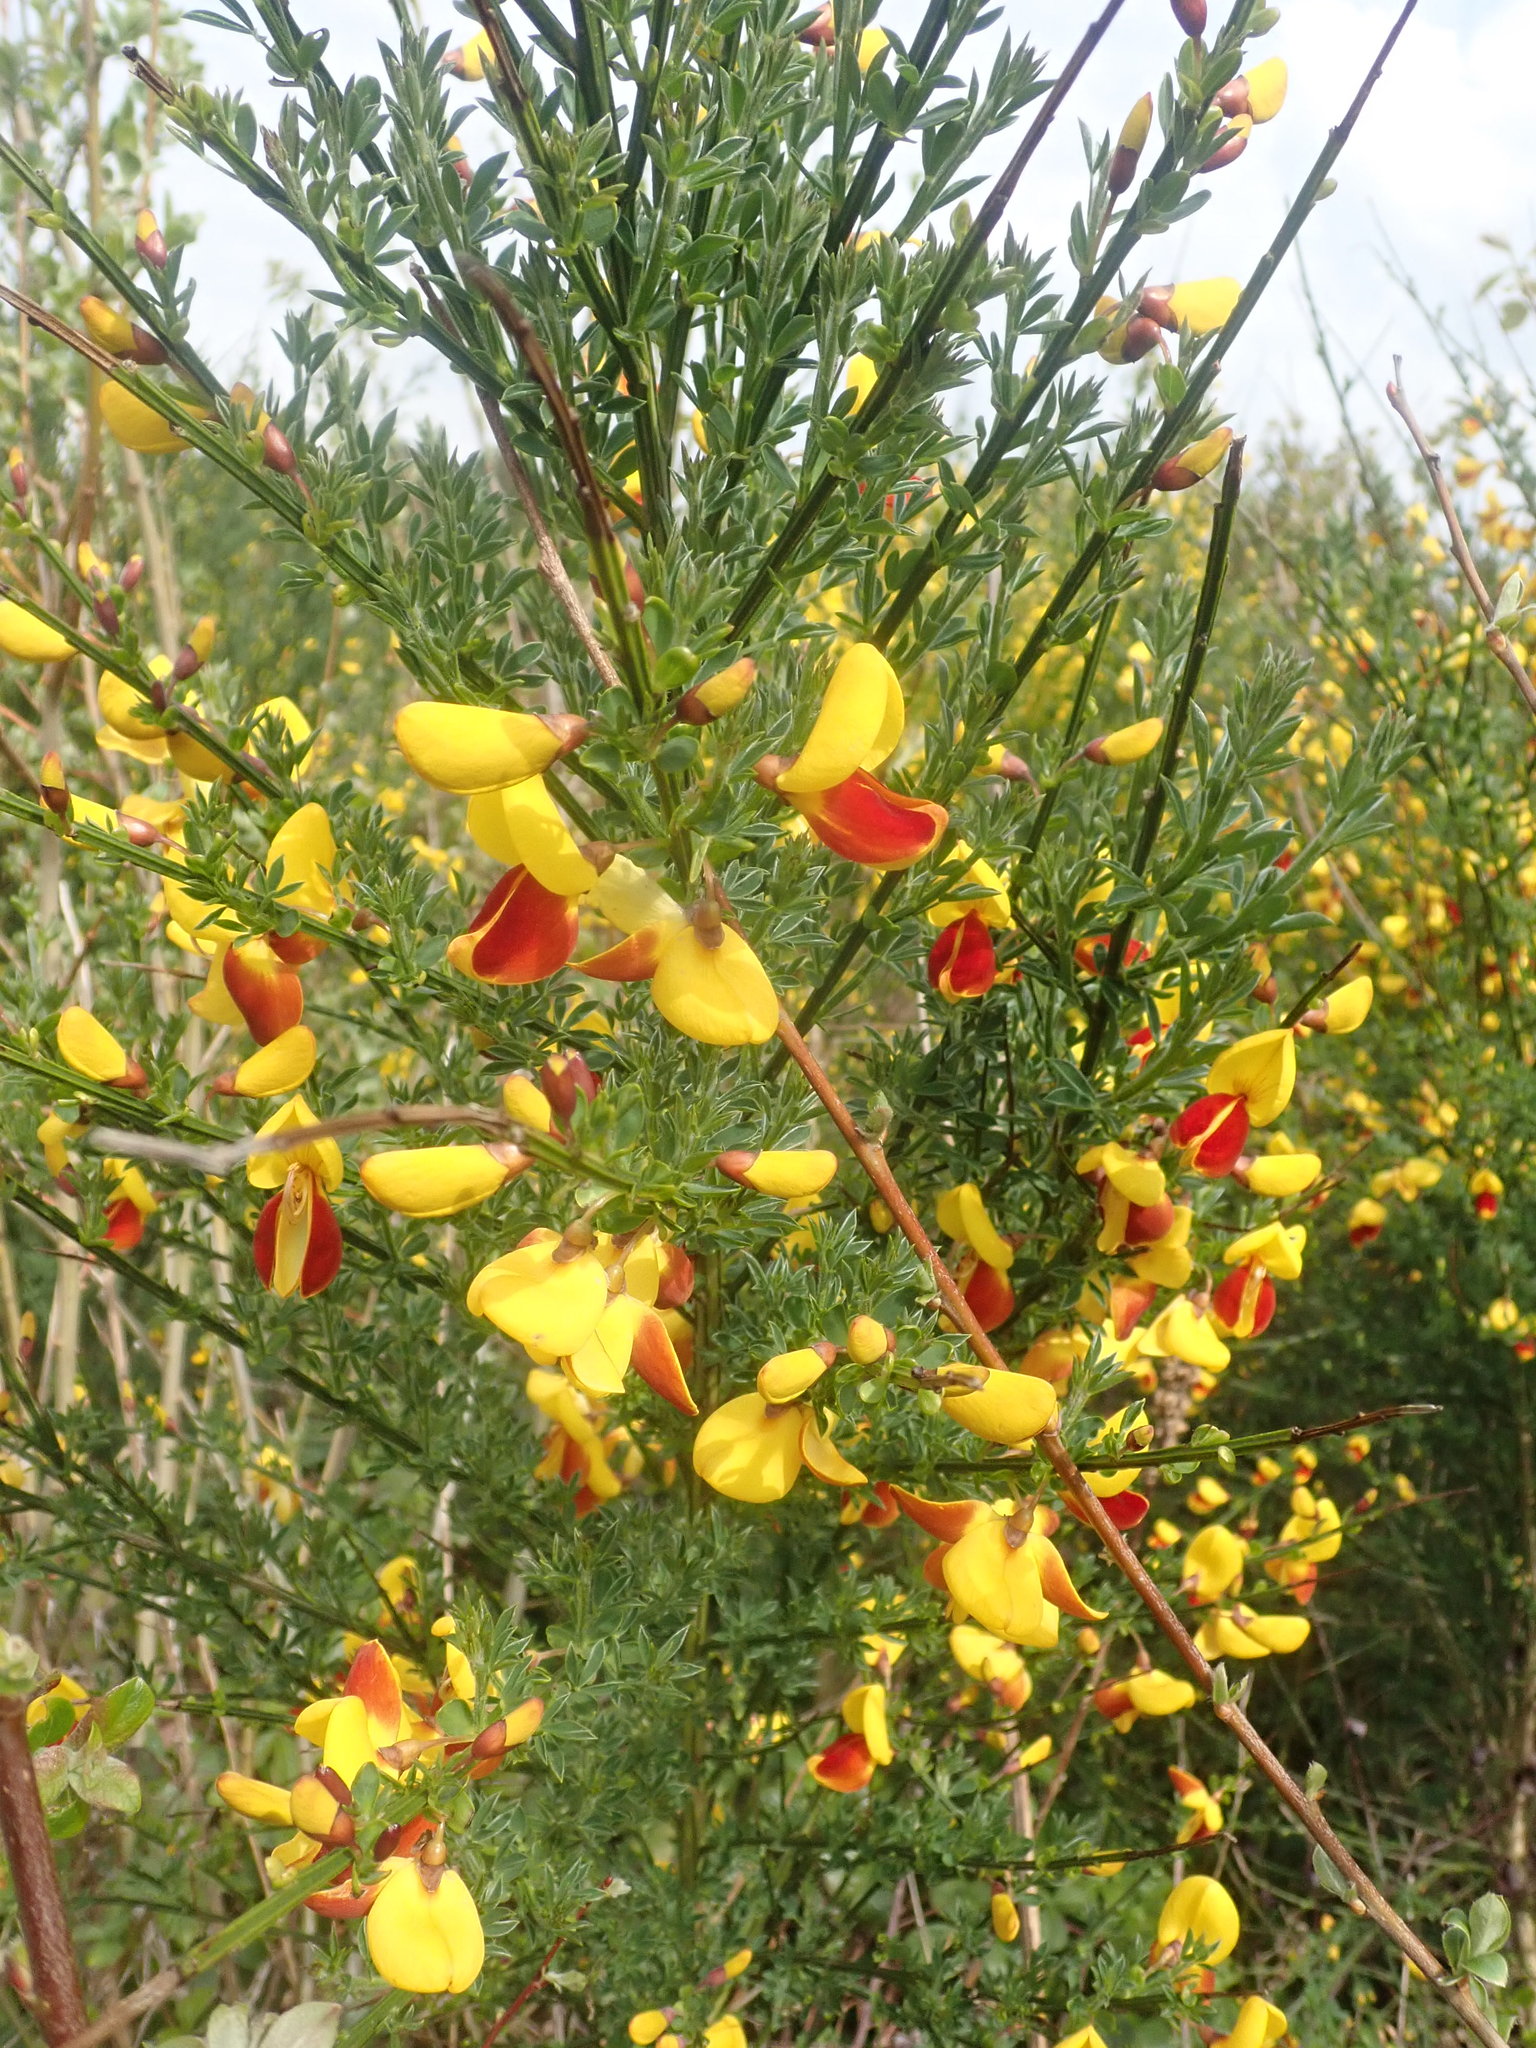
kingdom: Plantae
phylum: Tracheophyta
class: Magnoliopsida
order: Fabales
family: Fabaceae
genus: Cytisus
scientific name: Cytisus scoparius
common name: Scotch broom
